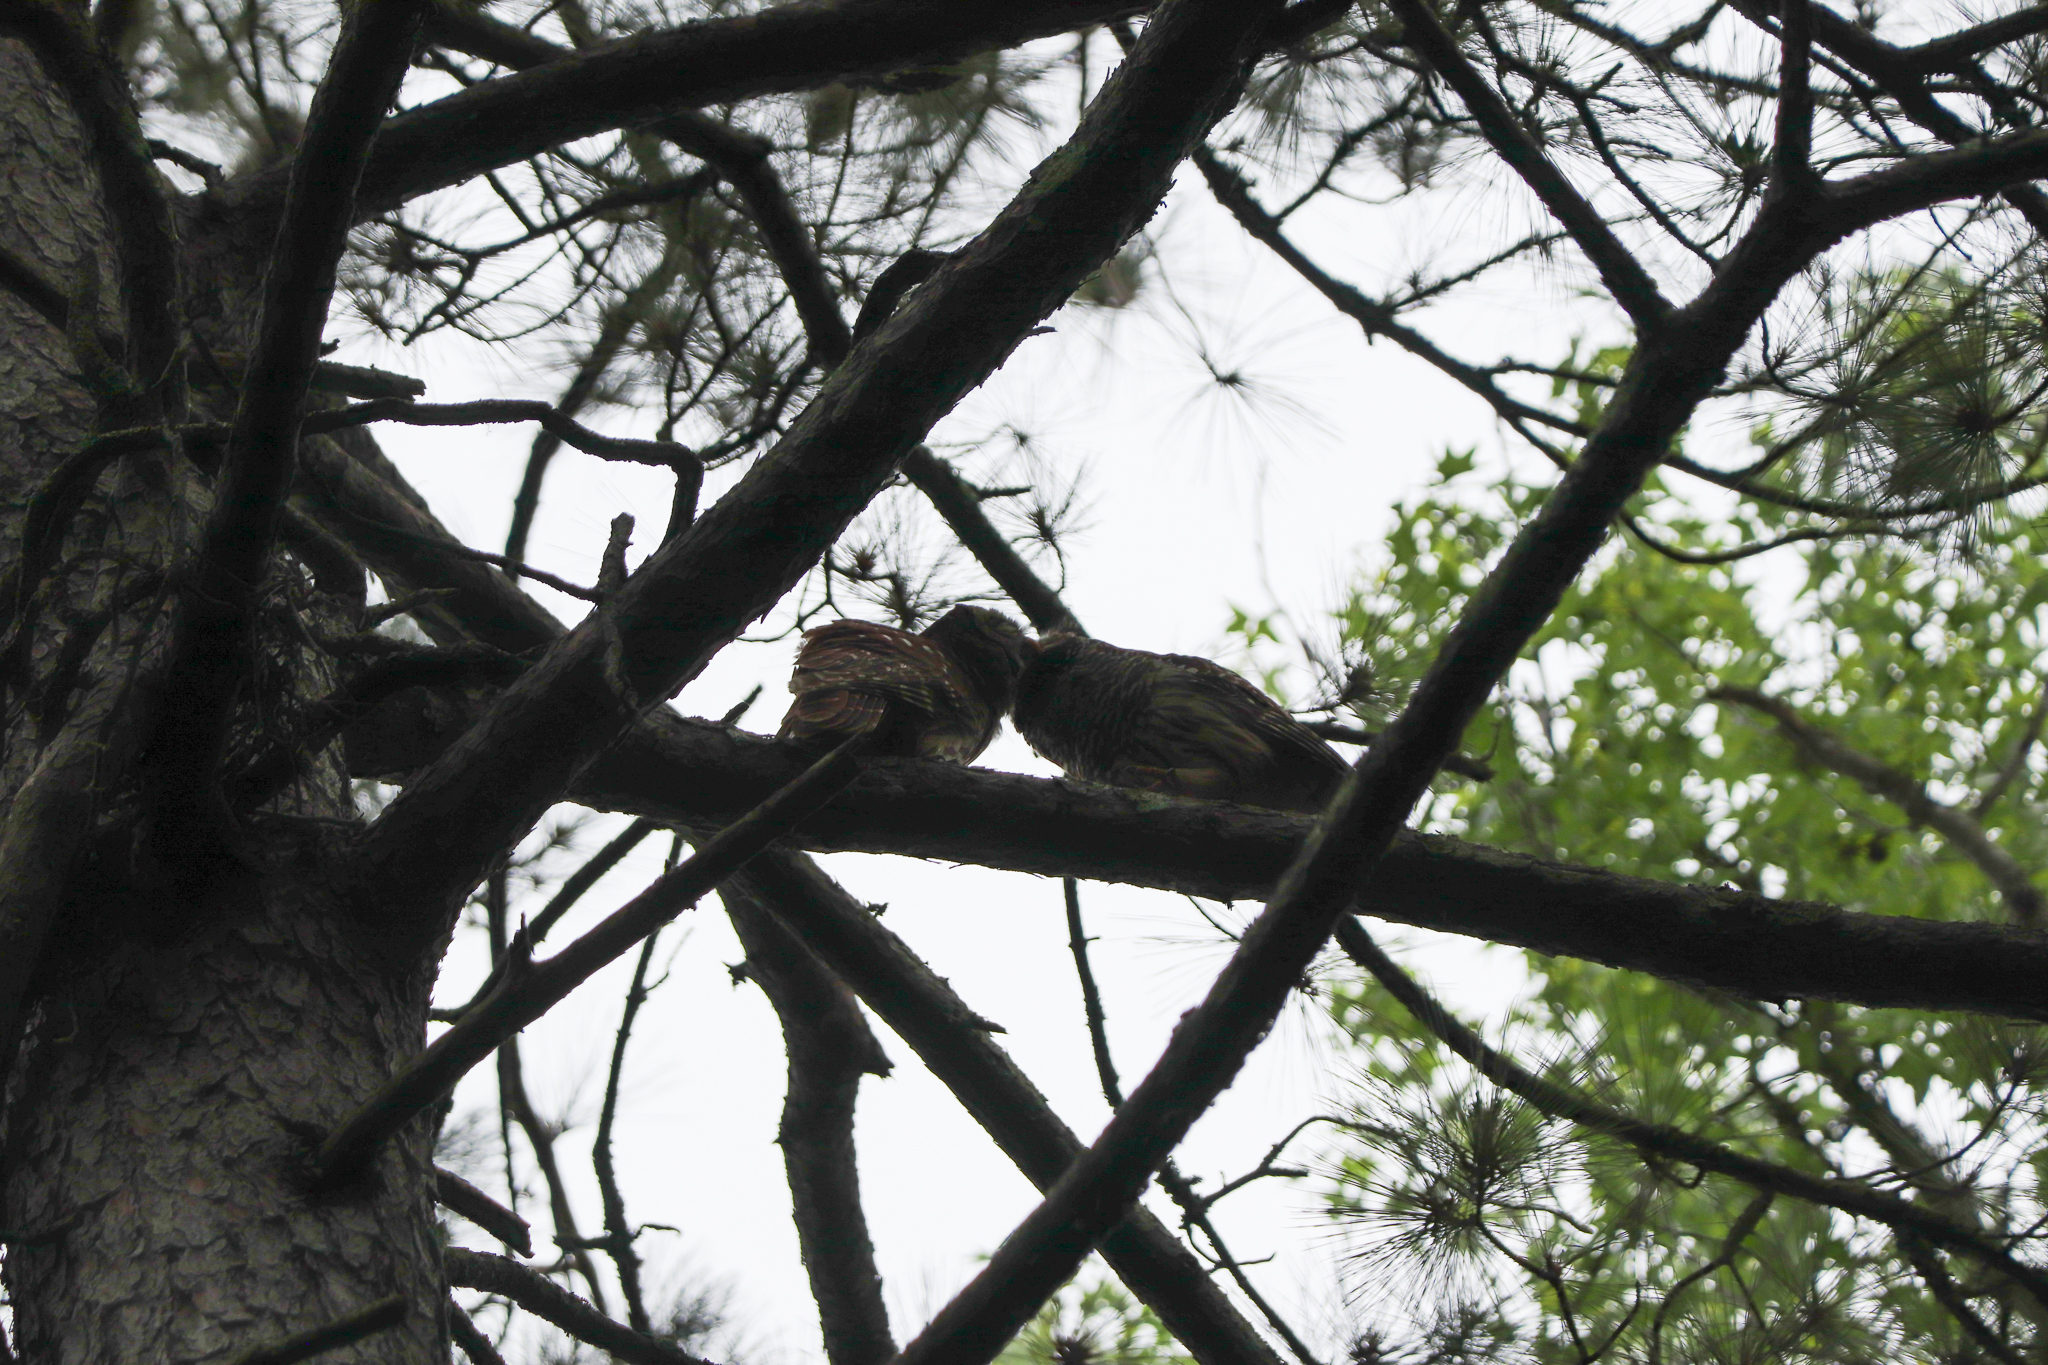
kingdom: Animalia
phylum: Chordata
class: Aves
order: Strigiformes
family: Strigidae
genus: Strix
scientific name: Strix varia
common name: Barred owl
